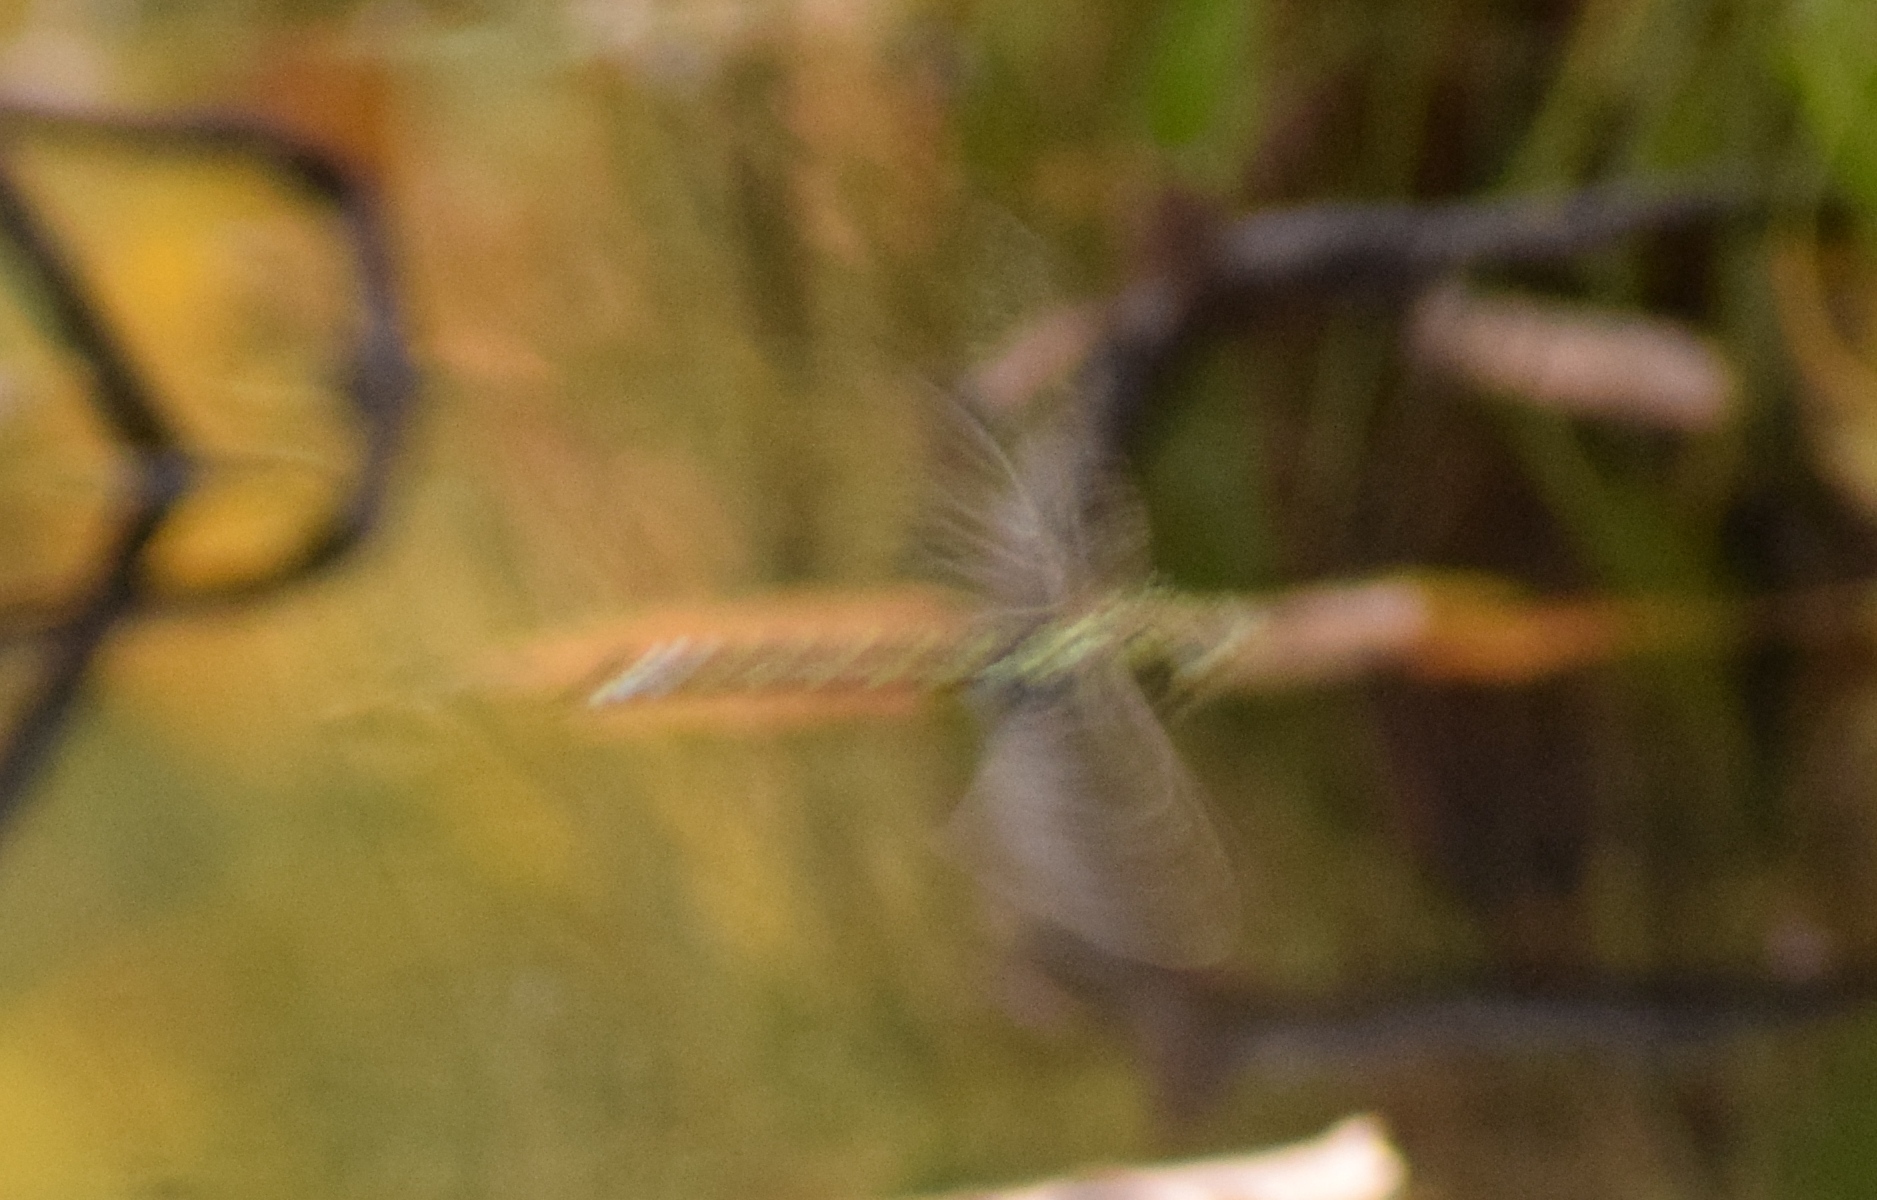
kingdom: Animalia
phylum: Arthropoda
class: Insecta
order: Odonata
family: Aeshnidae
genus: Aeshna
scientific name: Aeshna cyanea
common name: Southern hawker
